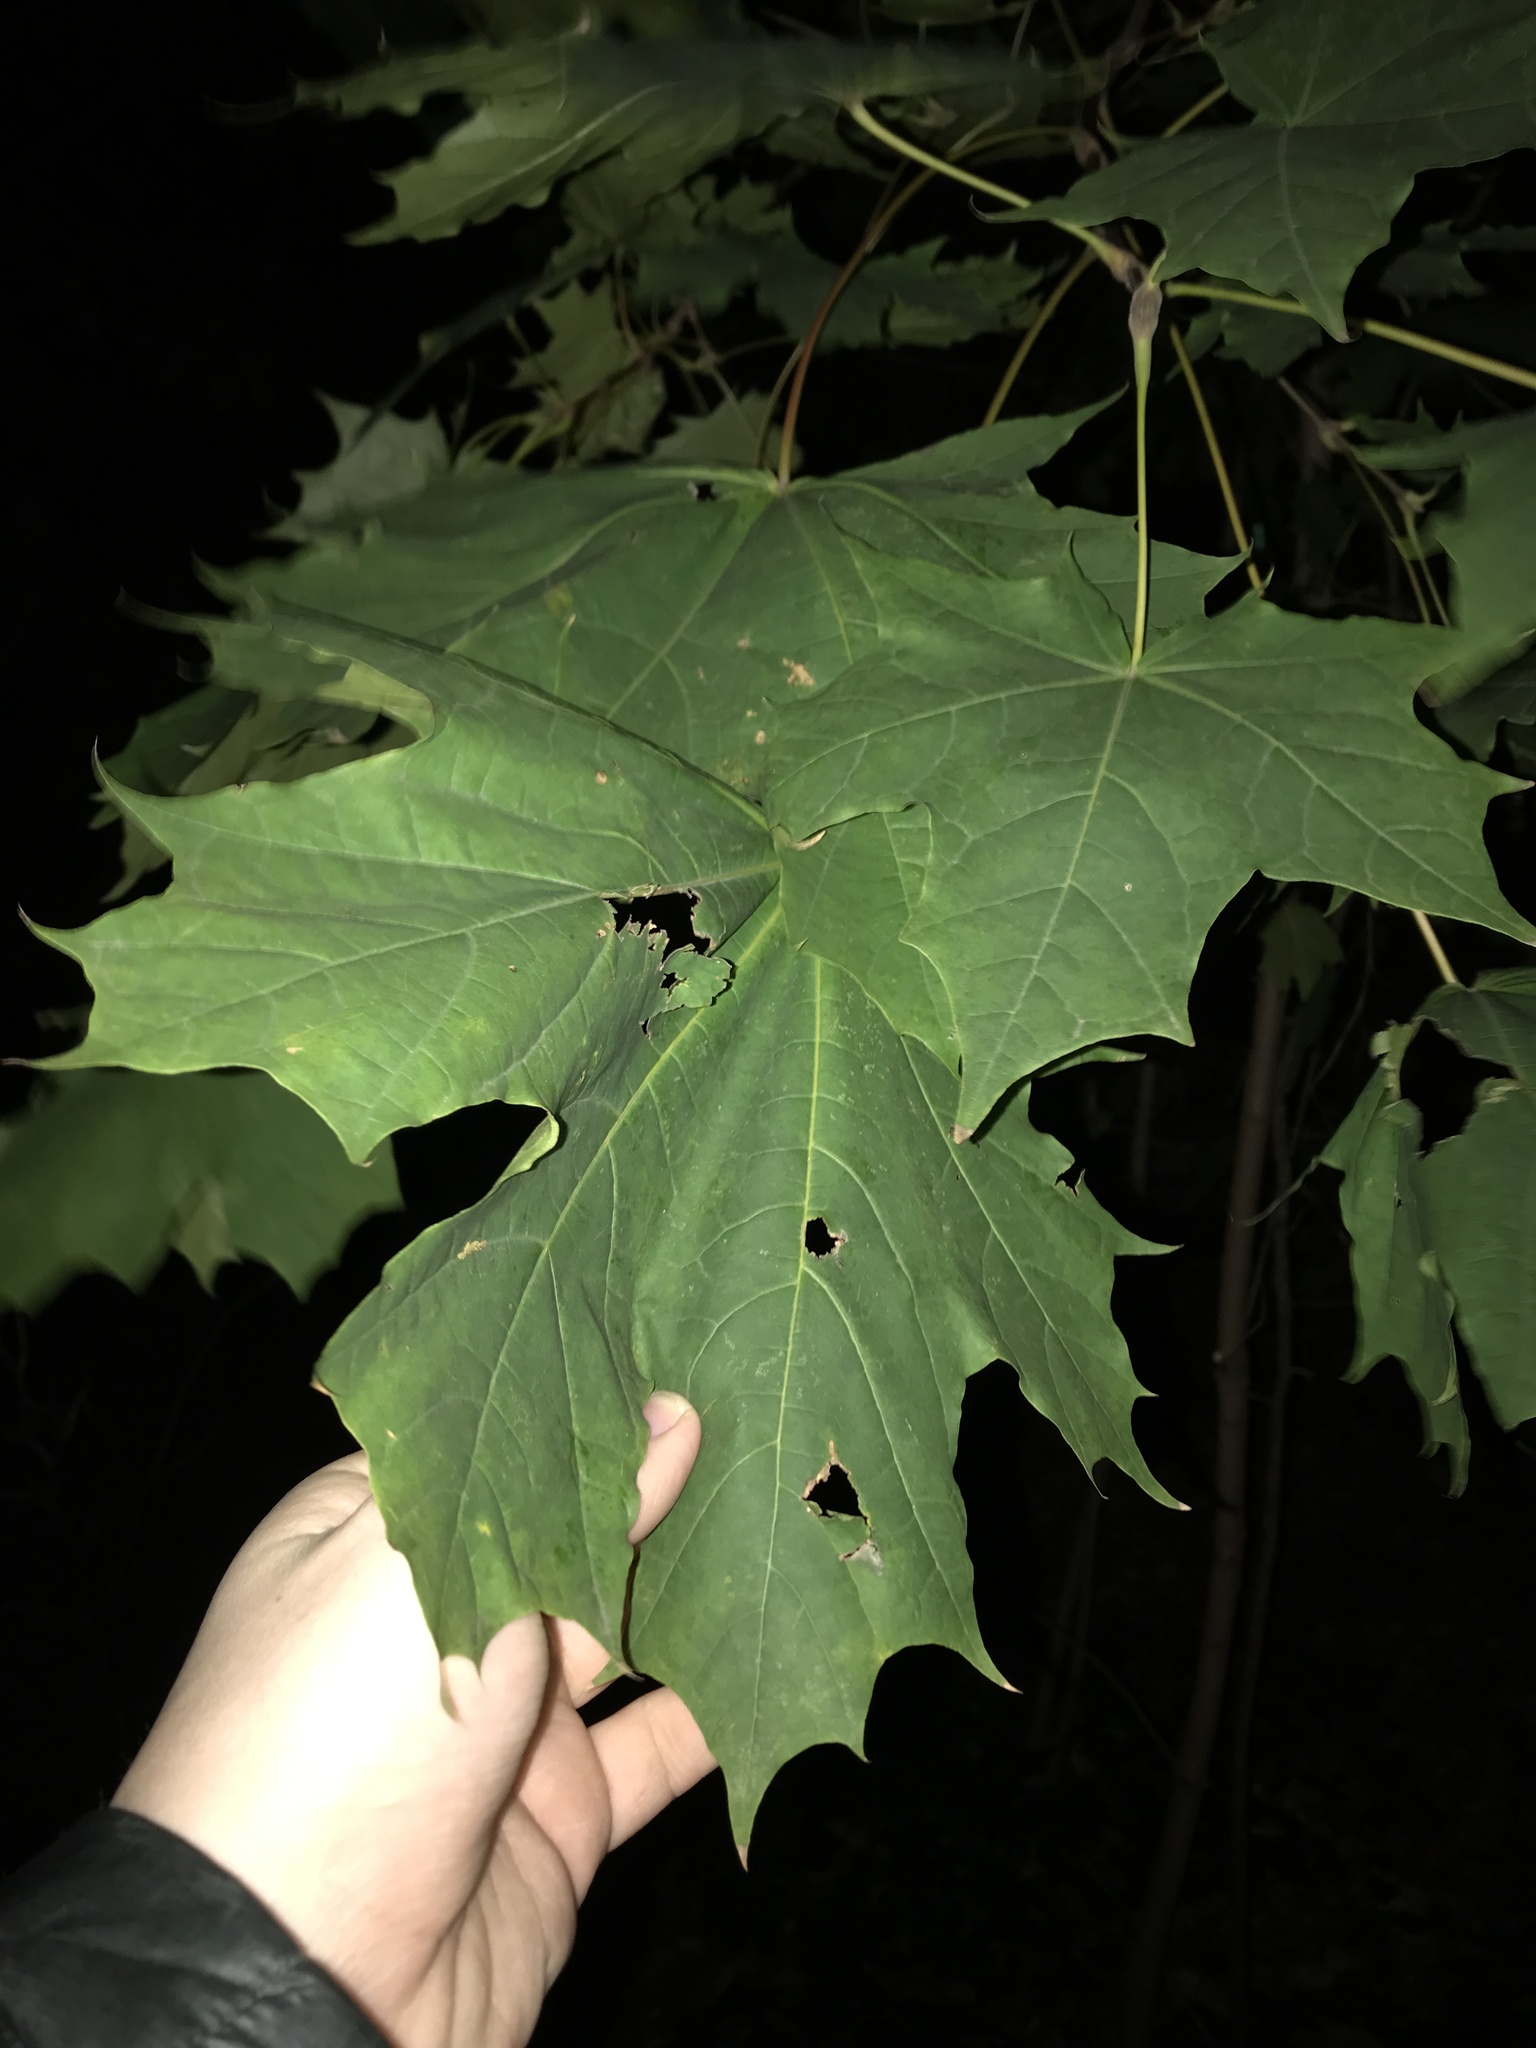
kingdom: Plantae
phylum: Tracheophyta
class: Magnoliopsida
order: Sapindales
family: Sapindaceae
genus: Acer
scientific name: Acer platanoides
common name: Norway maple
